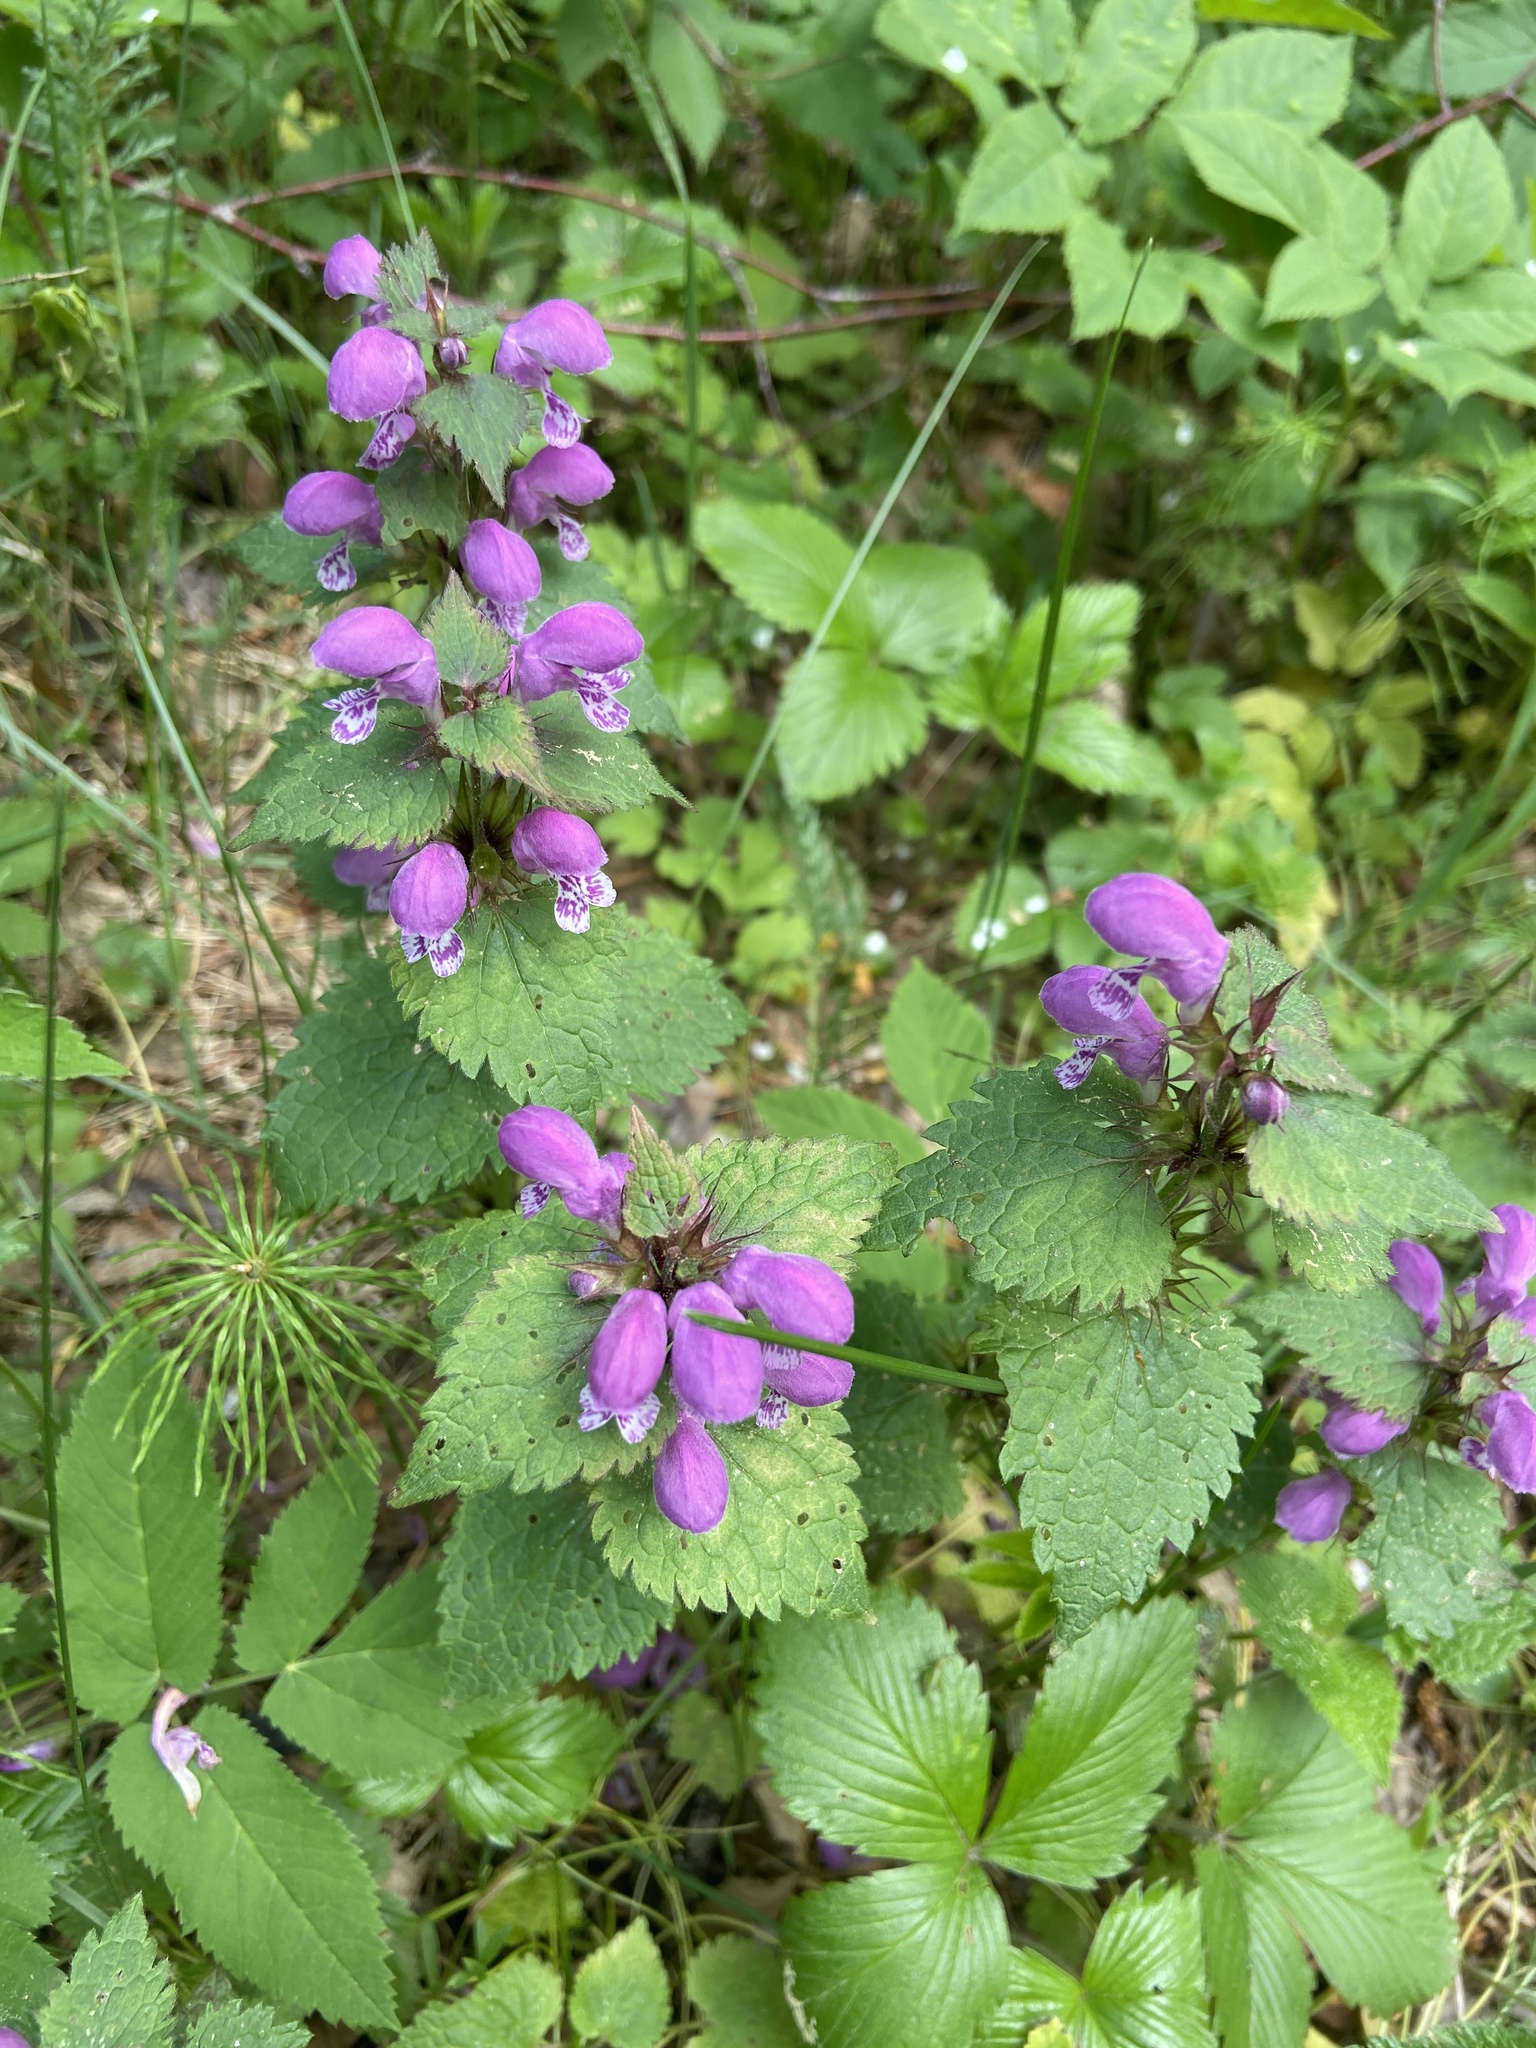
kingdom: Plantae
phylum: Tracheophyta
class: Magnoliopsida
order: Lamiales
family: Lamiaceae
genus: Lamium
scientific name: Lamium maculatum
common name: Spotted dead-nettle
